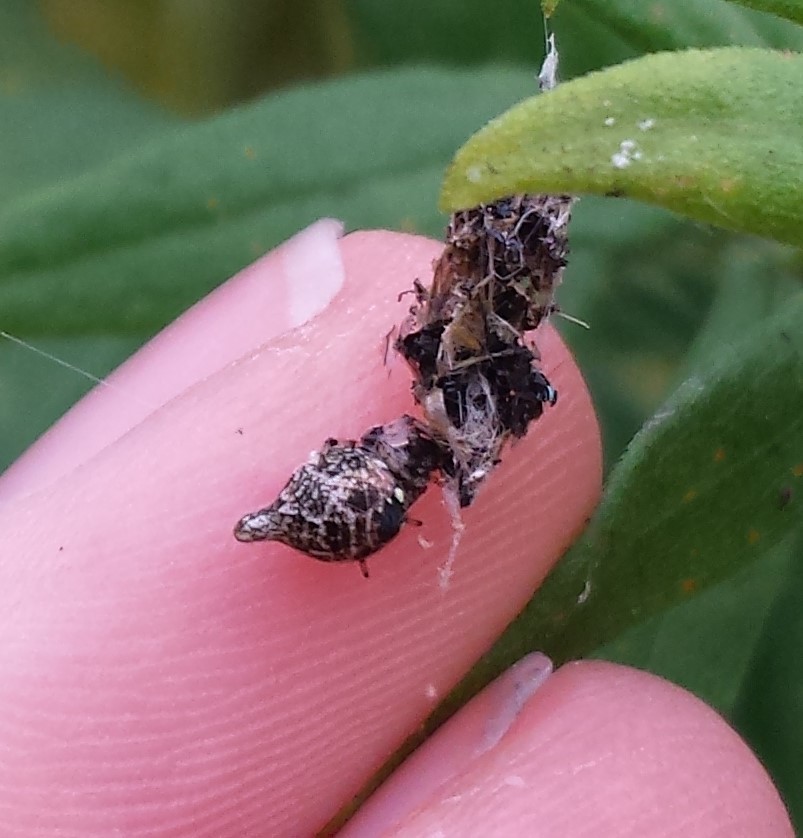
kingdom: Animalia
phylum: Arthropoda
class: Arachnida
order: Araneae
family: Araneidae
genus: Cyclosa
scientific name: Cyclosa turbinata
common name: Orb weavers
